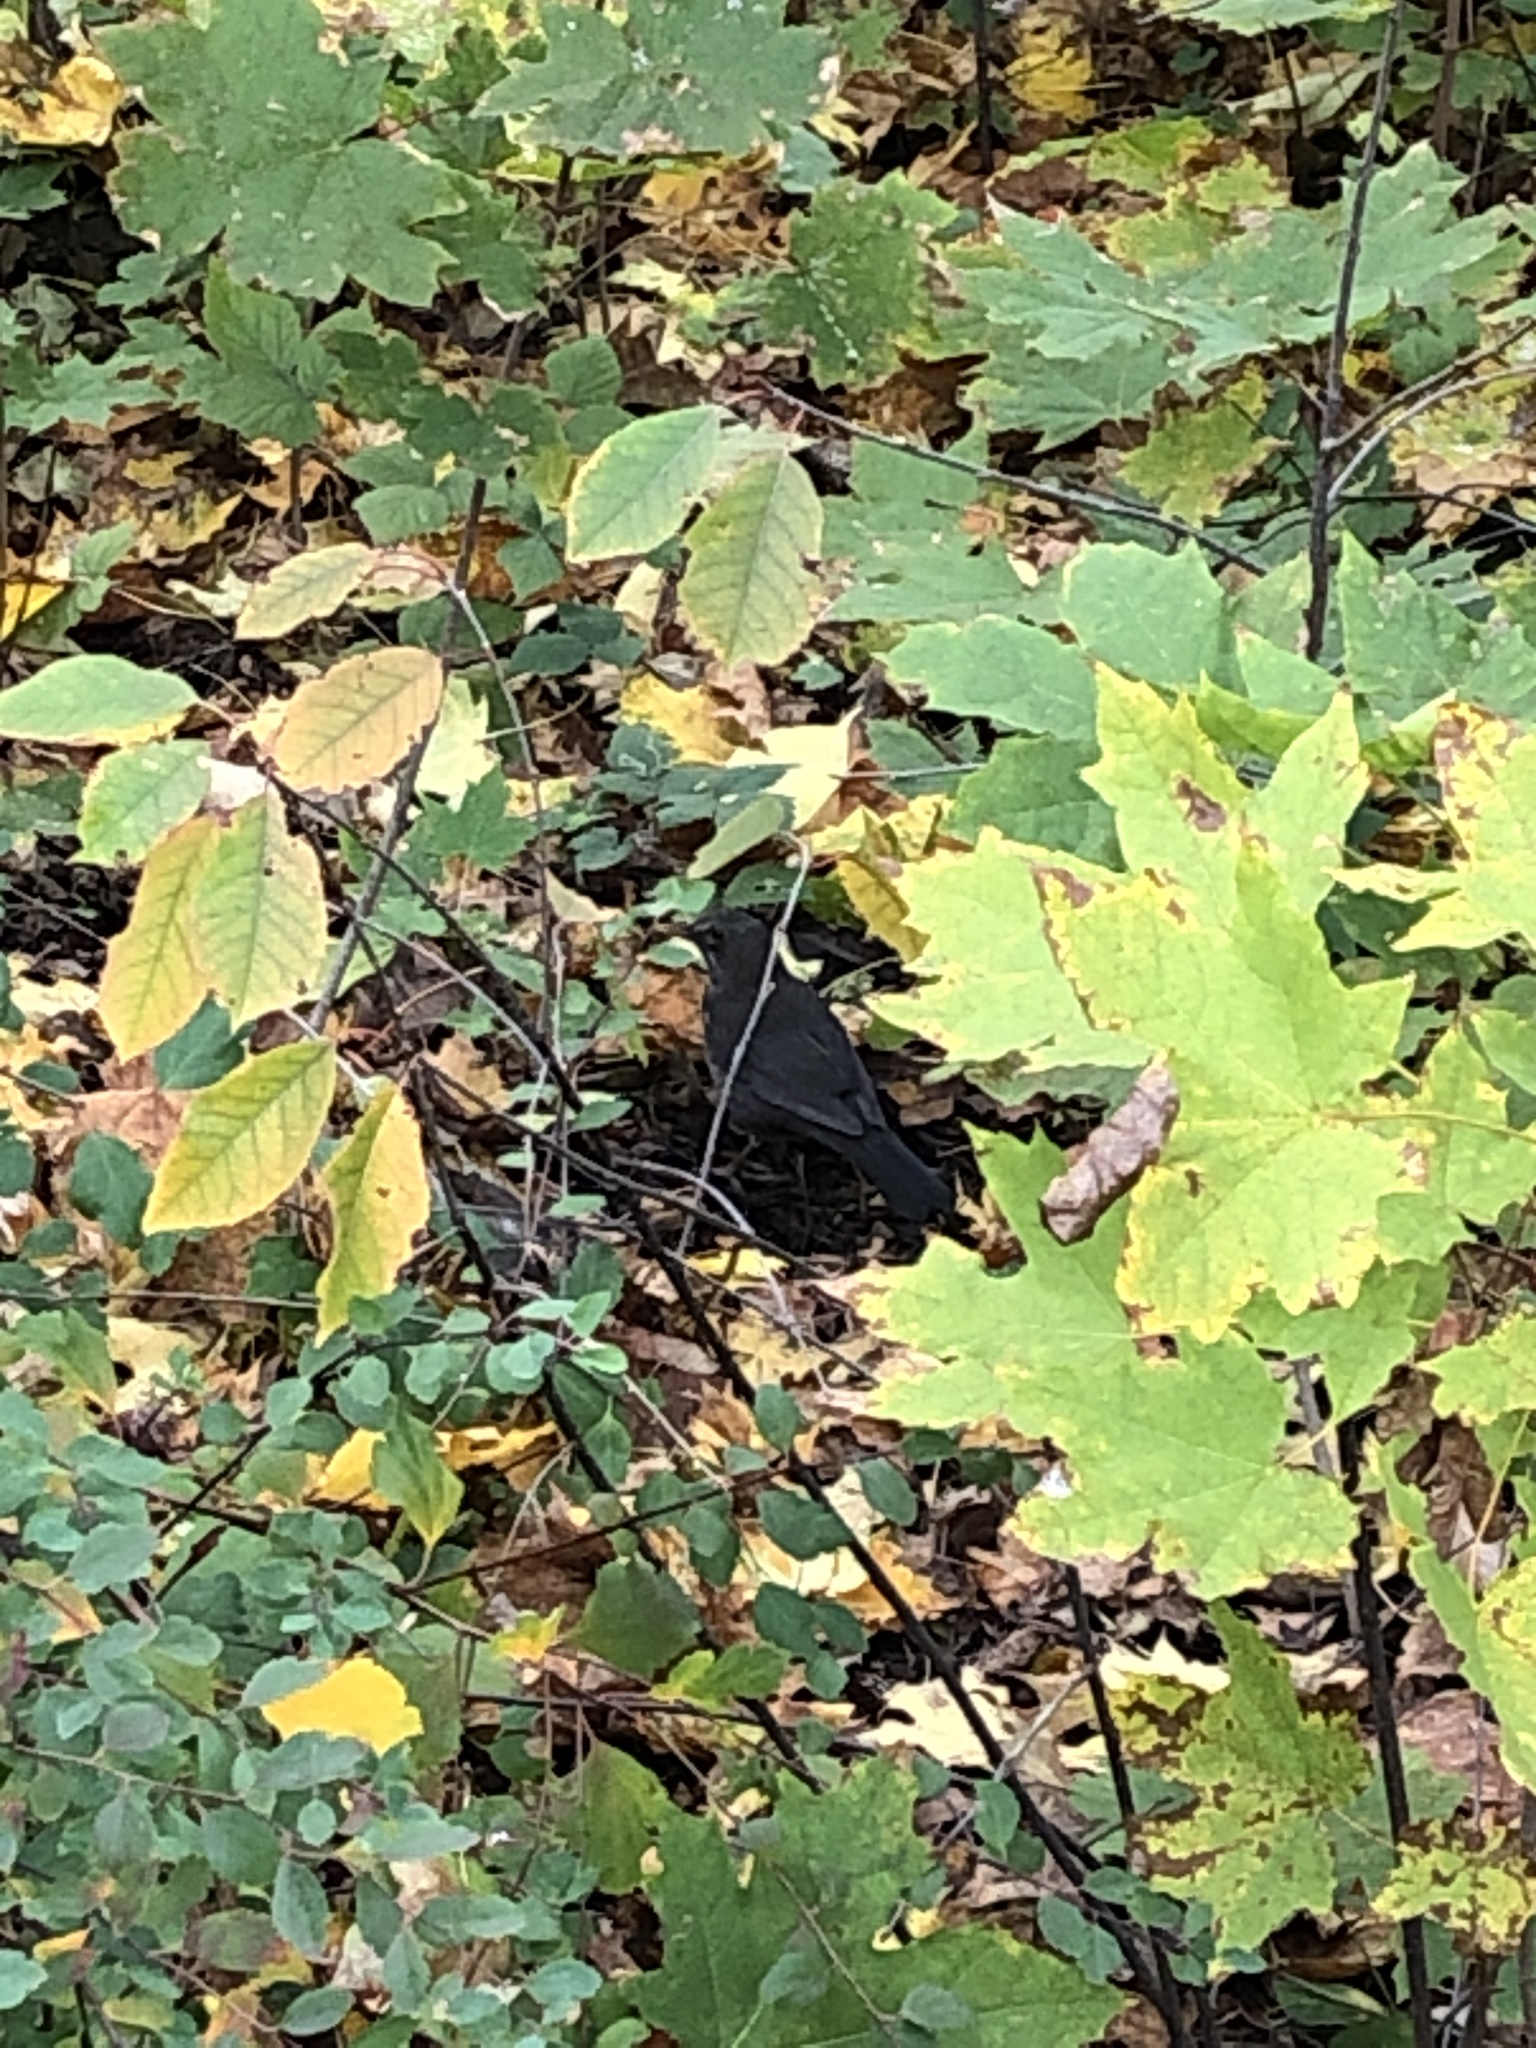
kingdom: Animalia
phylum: Chordata
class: Aves
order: Passeriformes
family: Turdidae
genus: Turdus
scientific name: Turdus merula
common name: Common blackbird
